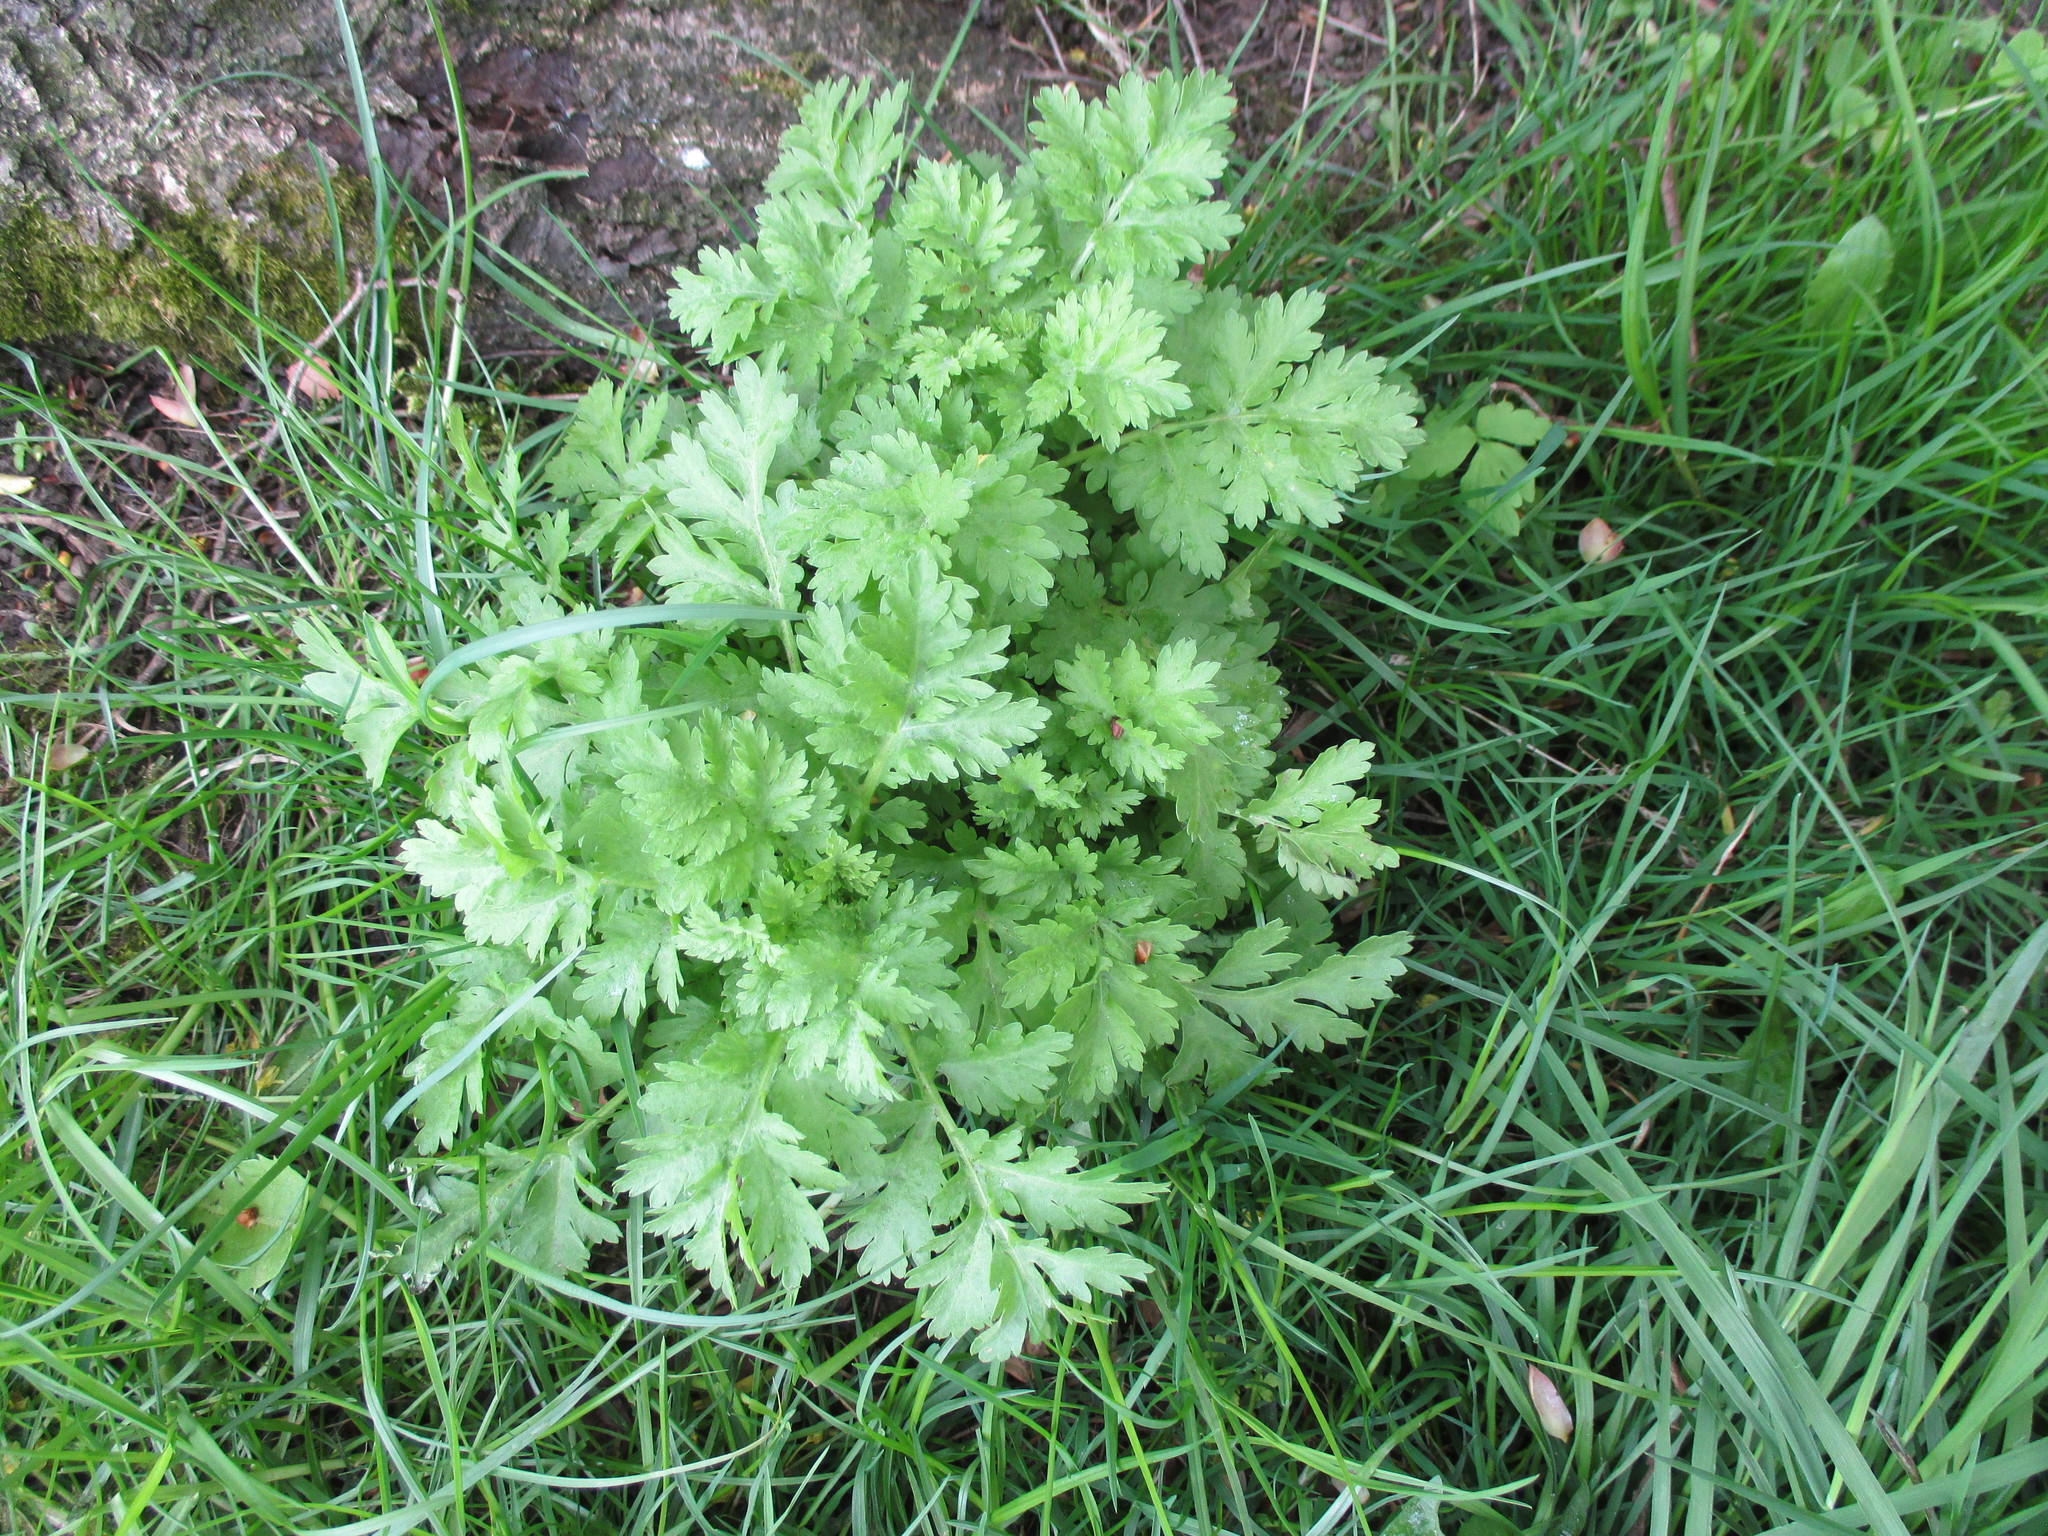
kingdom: Plantae
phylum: Tracheophyta
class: Magnoliopsida
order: Asterales
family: Asteraceae
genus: Tanacetum
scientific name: Tanacetum parthenium
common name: Feverfew
